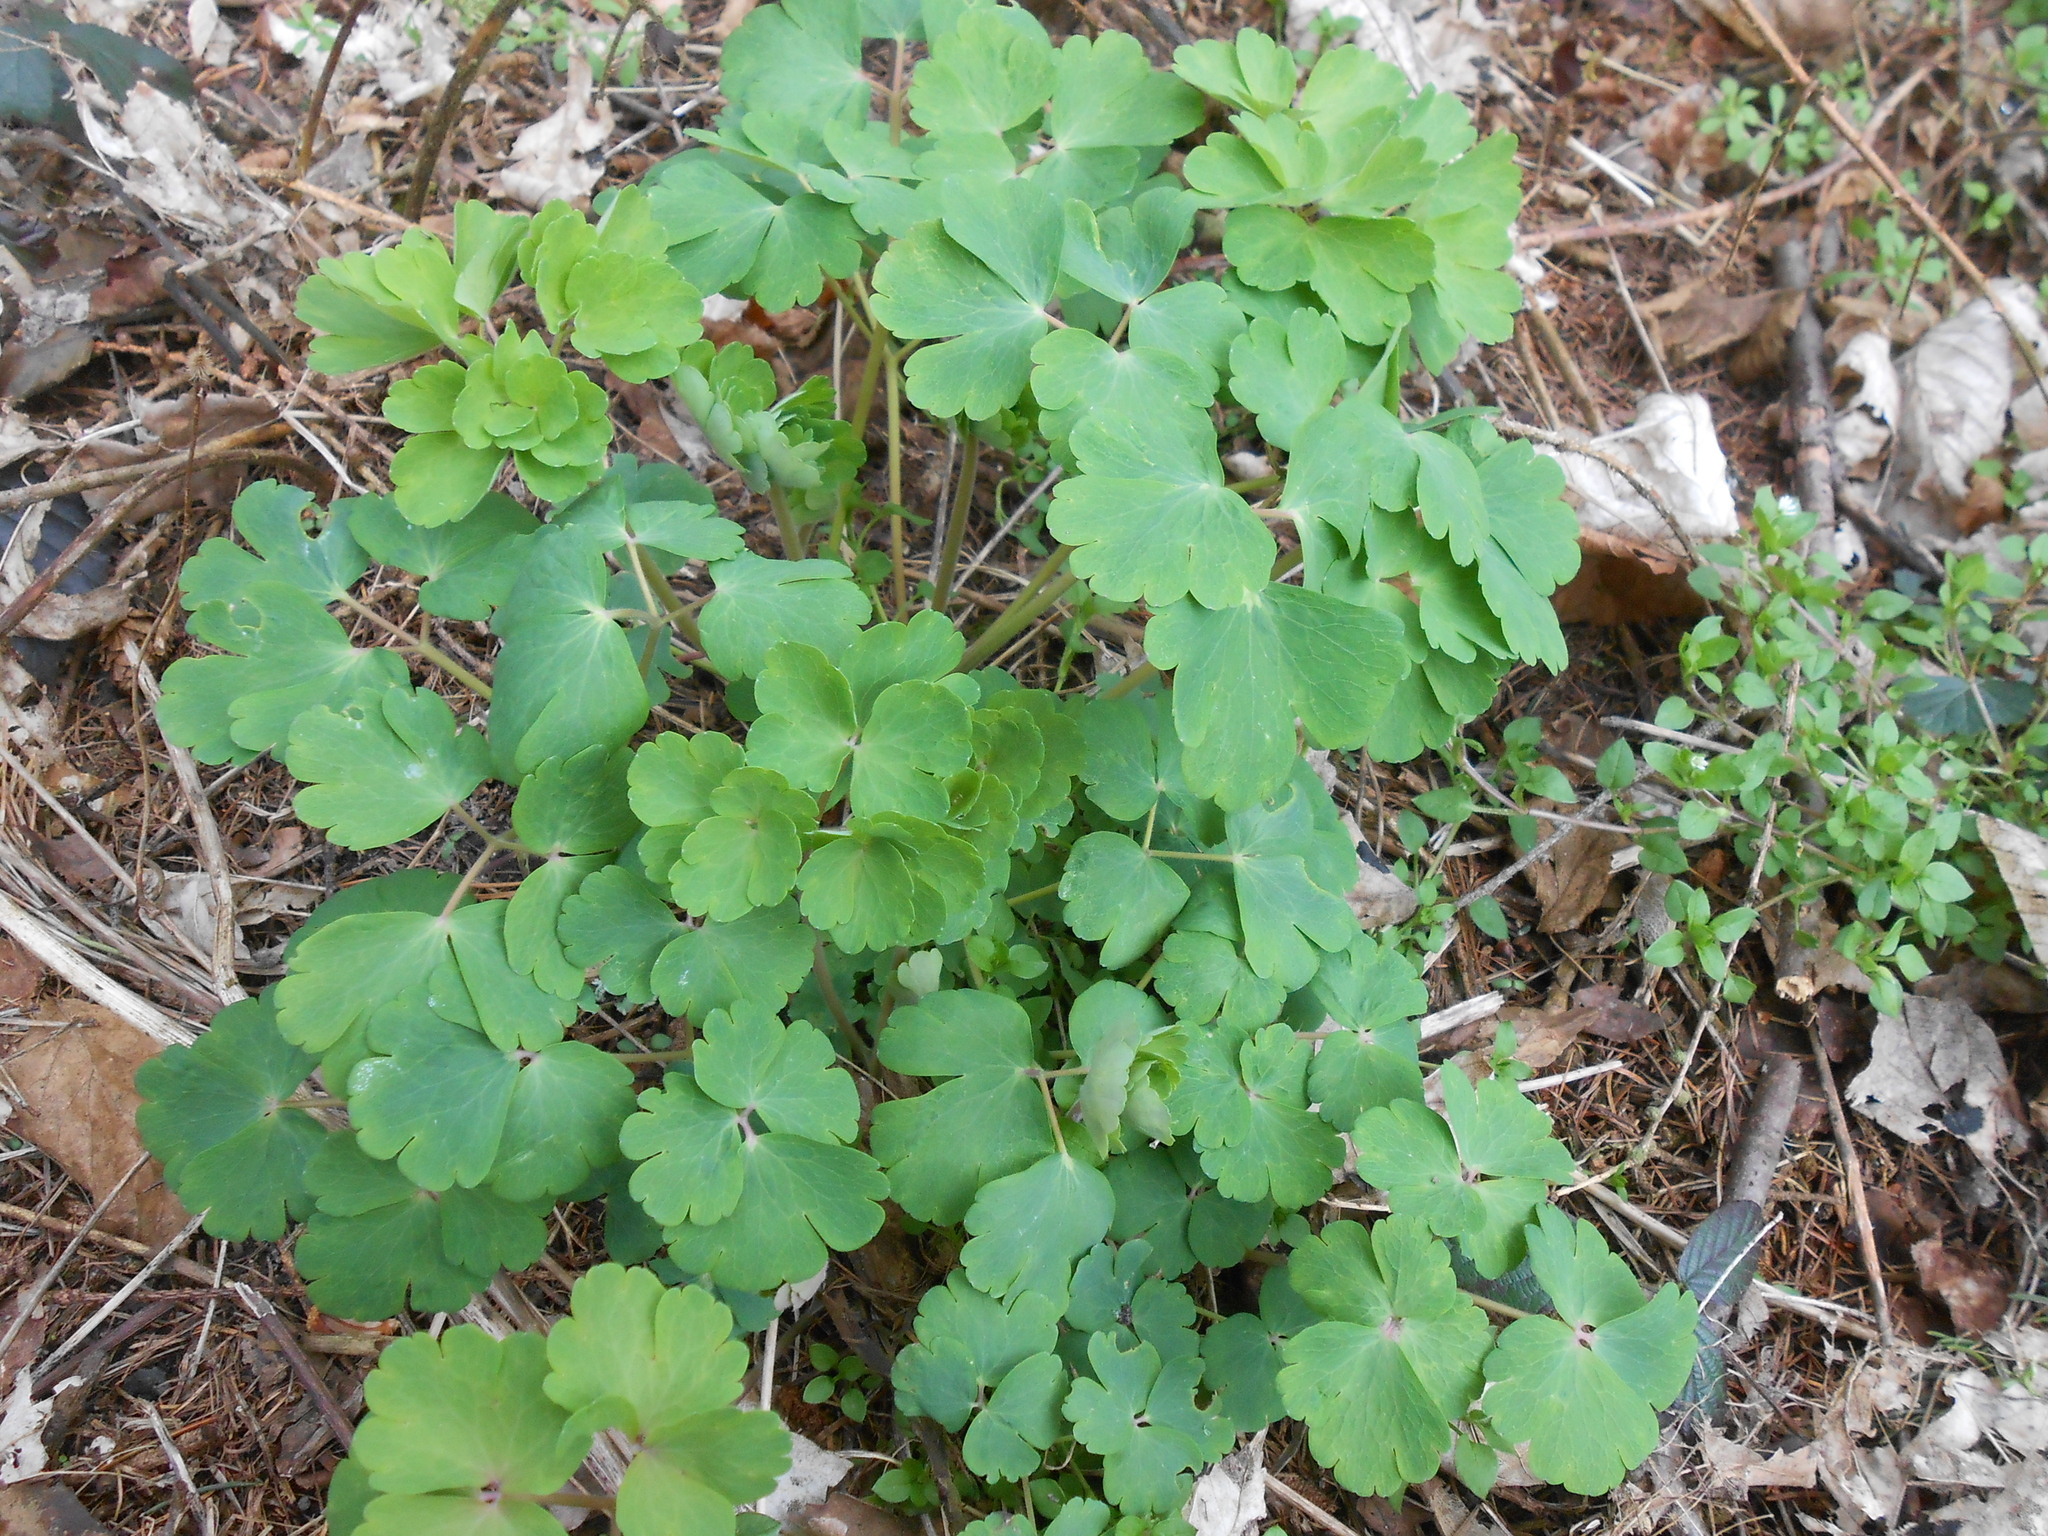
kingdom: Plantae
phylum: Tracheophyta
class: Magnoliopsida
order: Ranunculales
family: Ranunculaceae
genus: Aquilegia
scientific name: Aquilegia vulgaris
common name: Columbine
